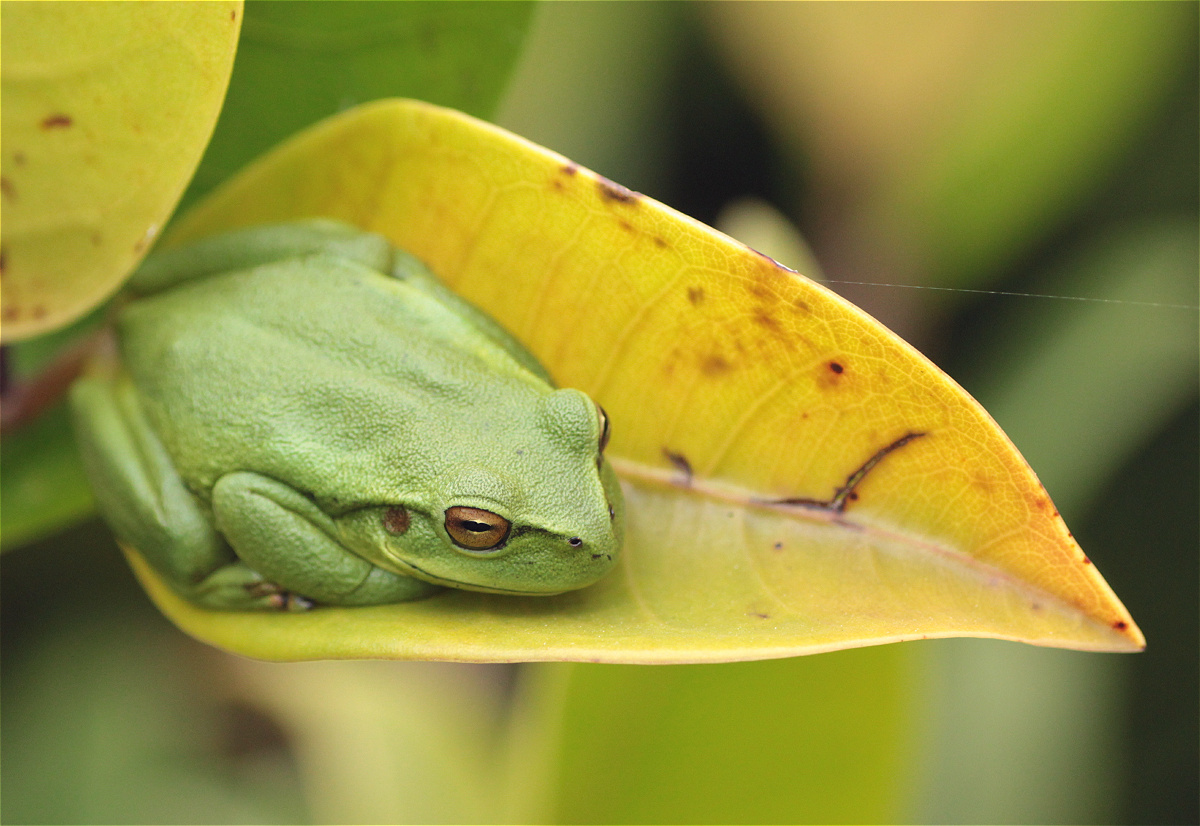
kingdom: Animalia
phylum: Chordata
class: Amphibia
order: Anura
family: Hylidae
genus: Dendropsophus
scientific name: Dendropsophus molitor
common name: Green dotted treefrog
